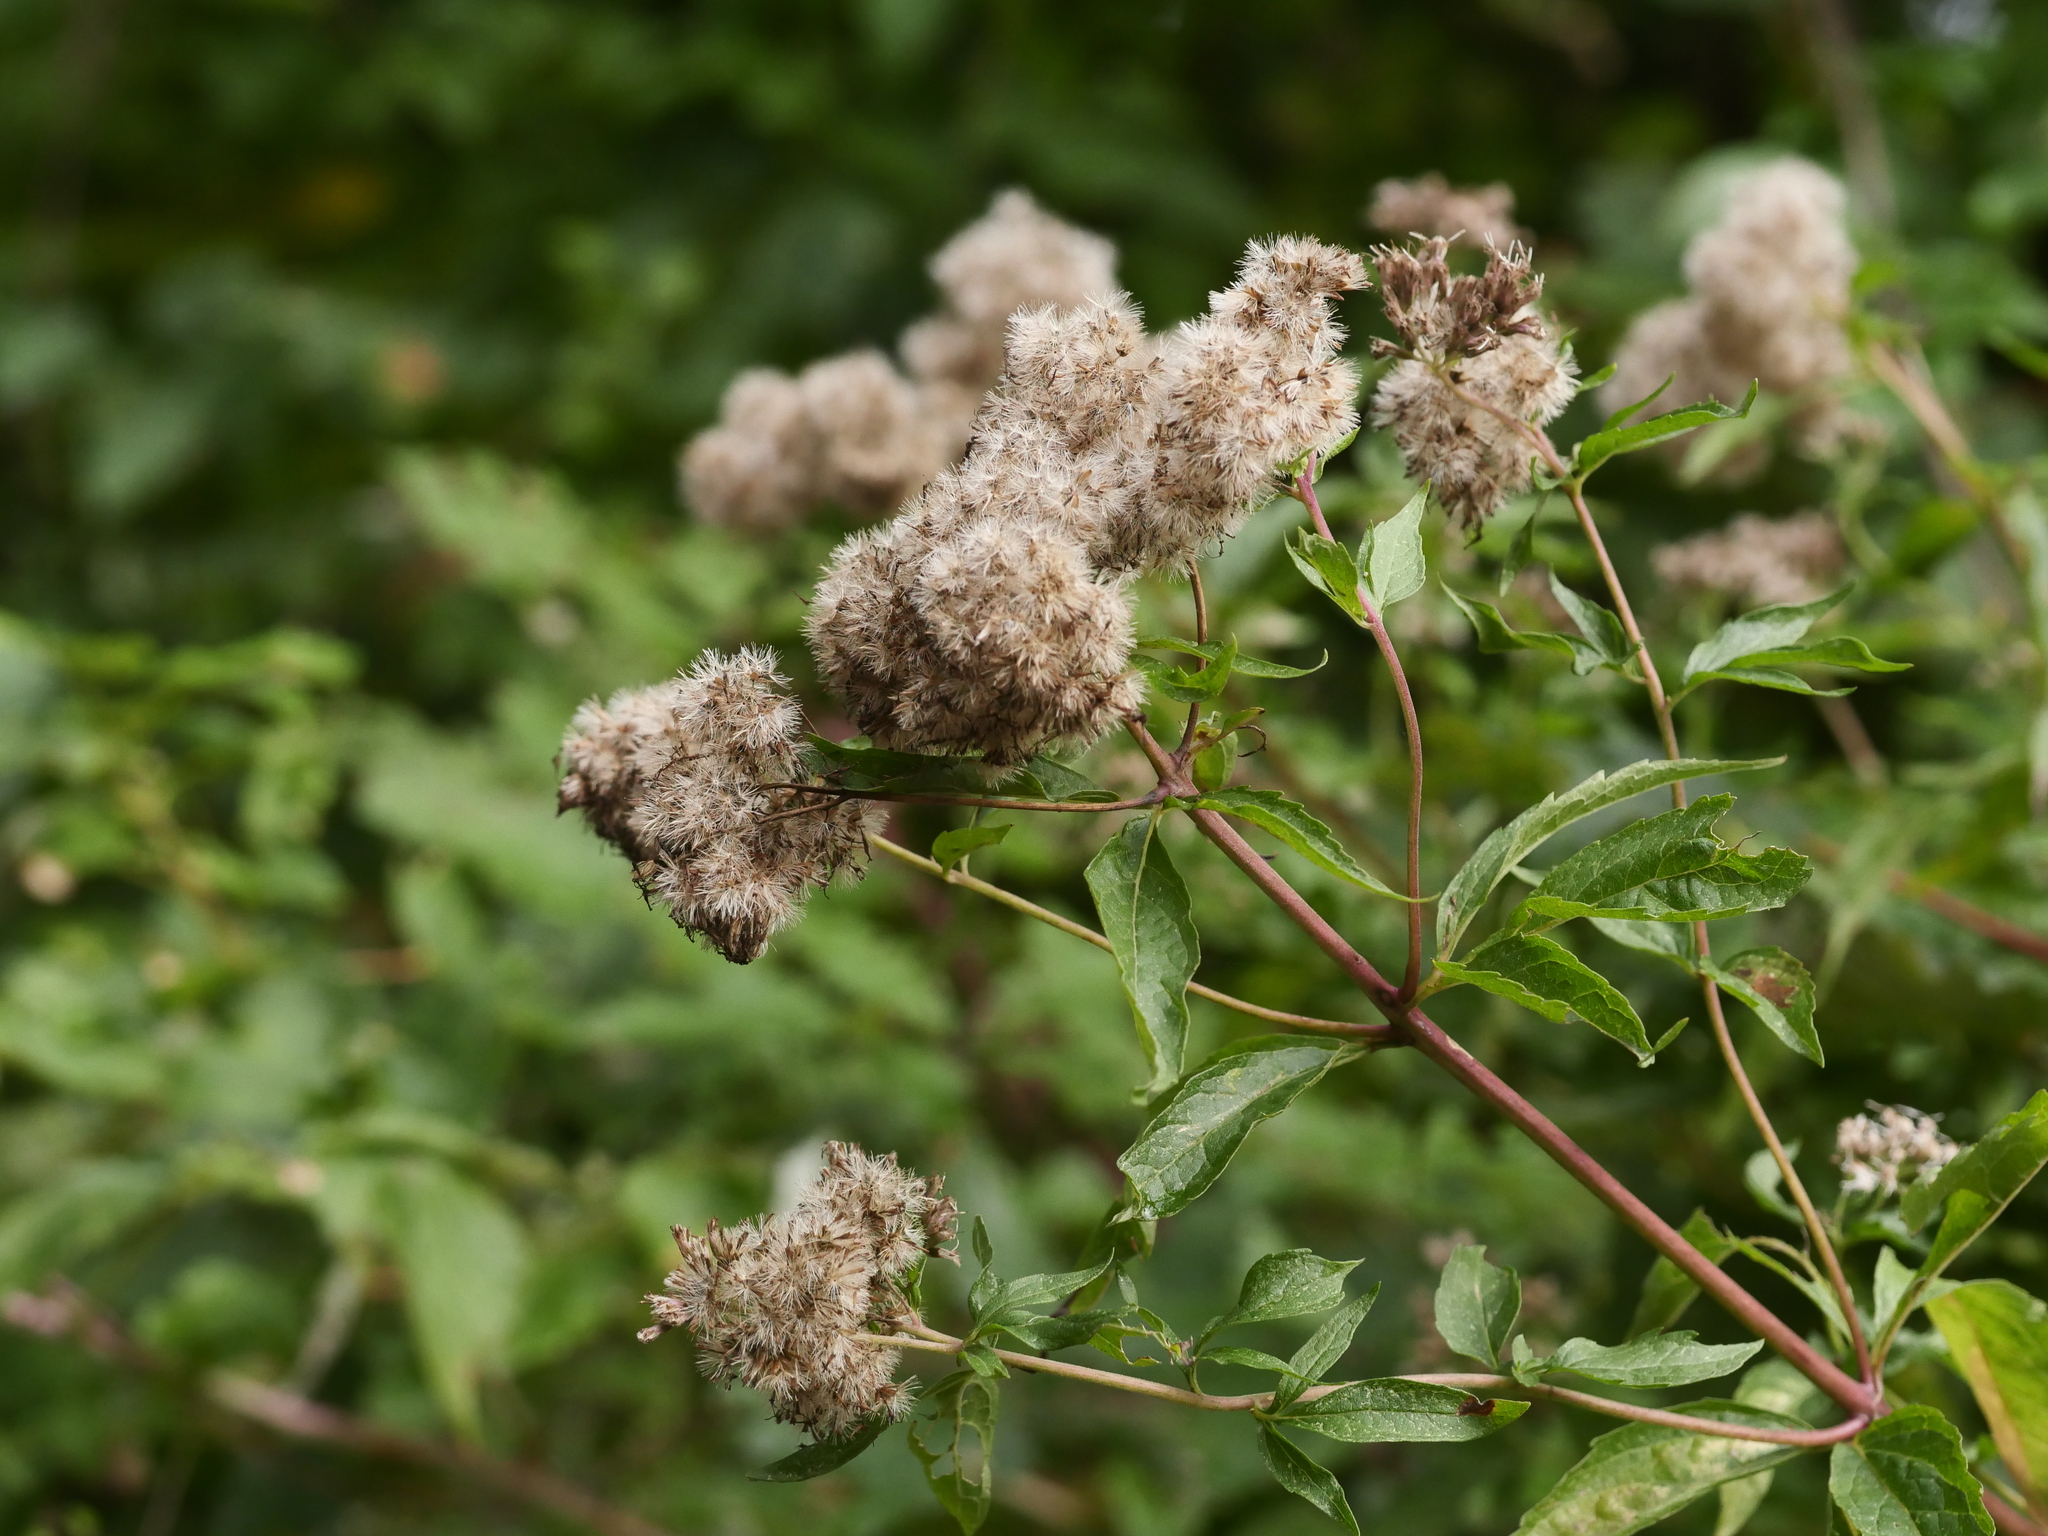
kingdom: Plantae
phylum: Tracheophyta
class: Magnoliopsida
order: Asterales
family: Asteraceae
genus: Eupatorium
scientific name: Eupatorium cannabinum
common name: Hemp-agrimony
